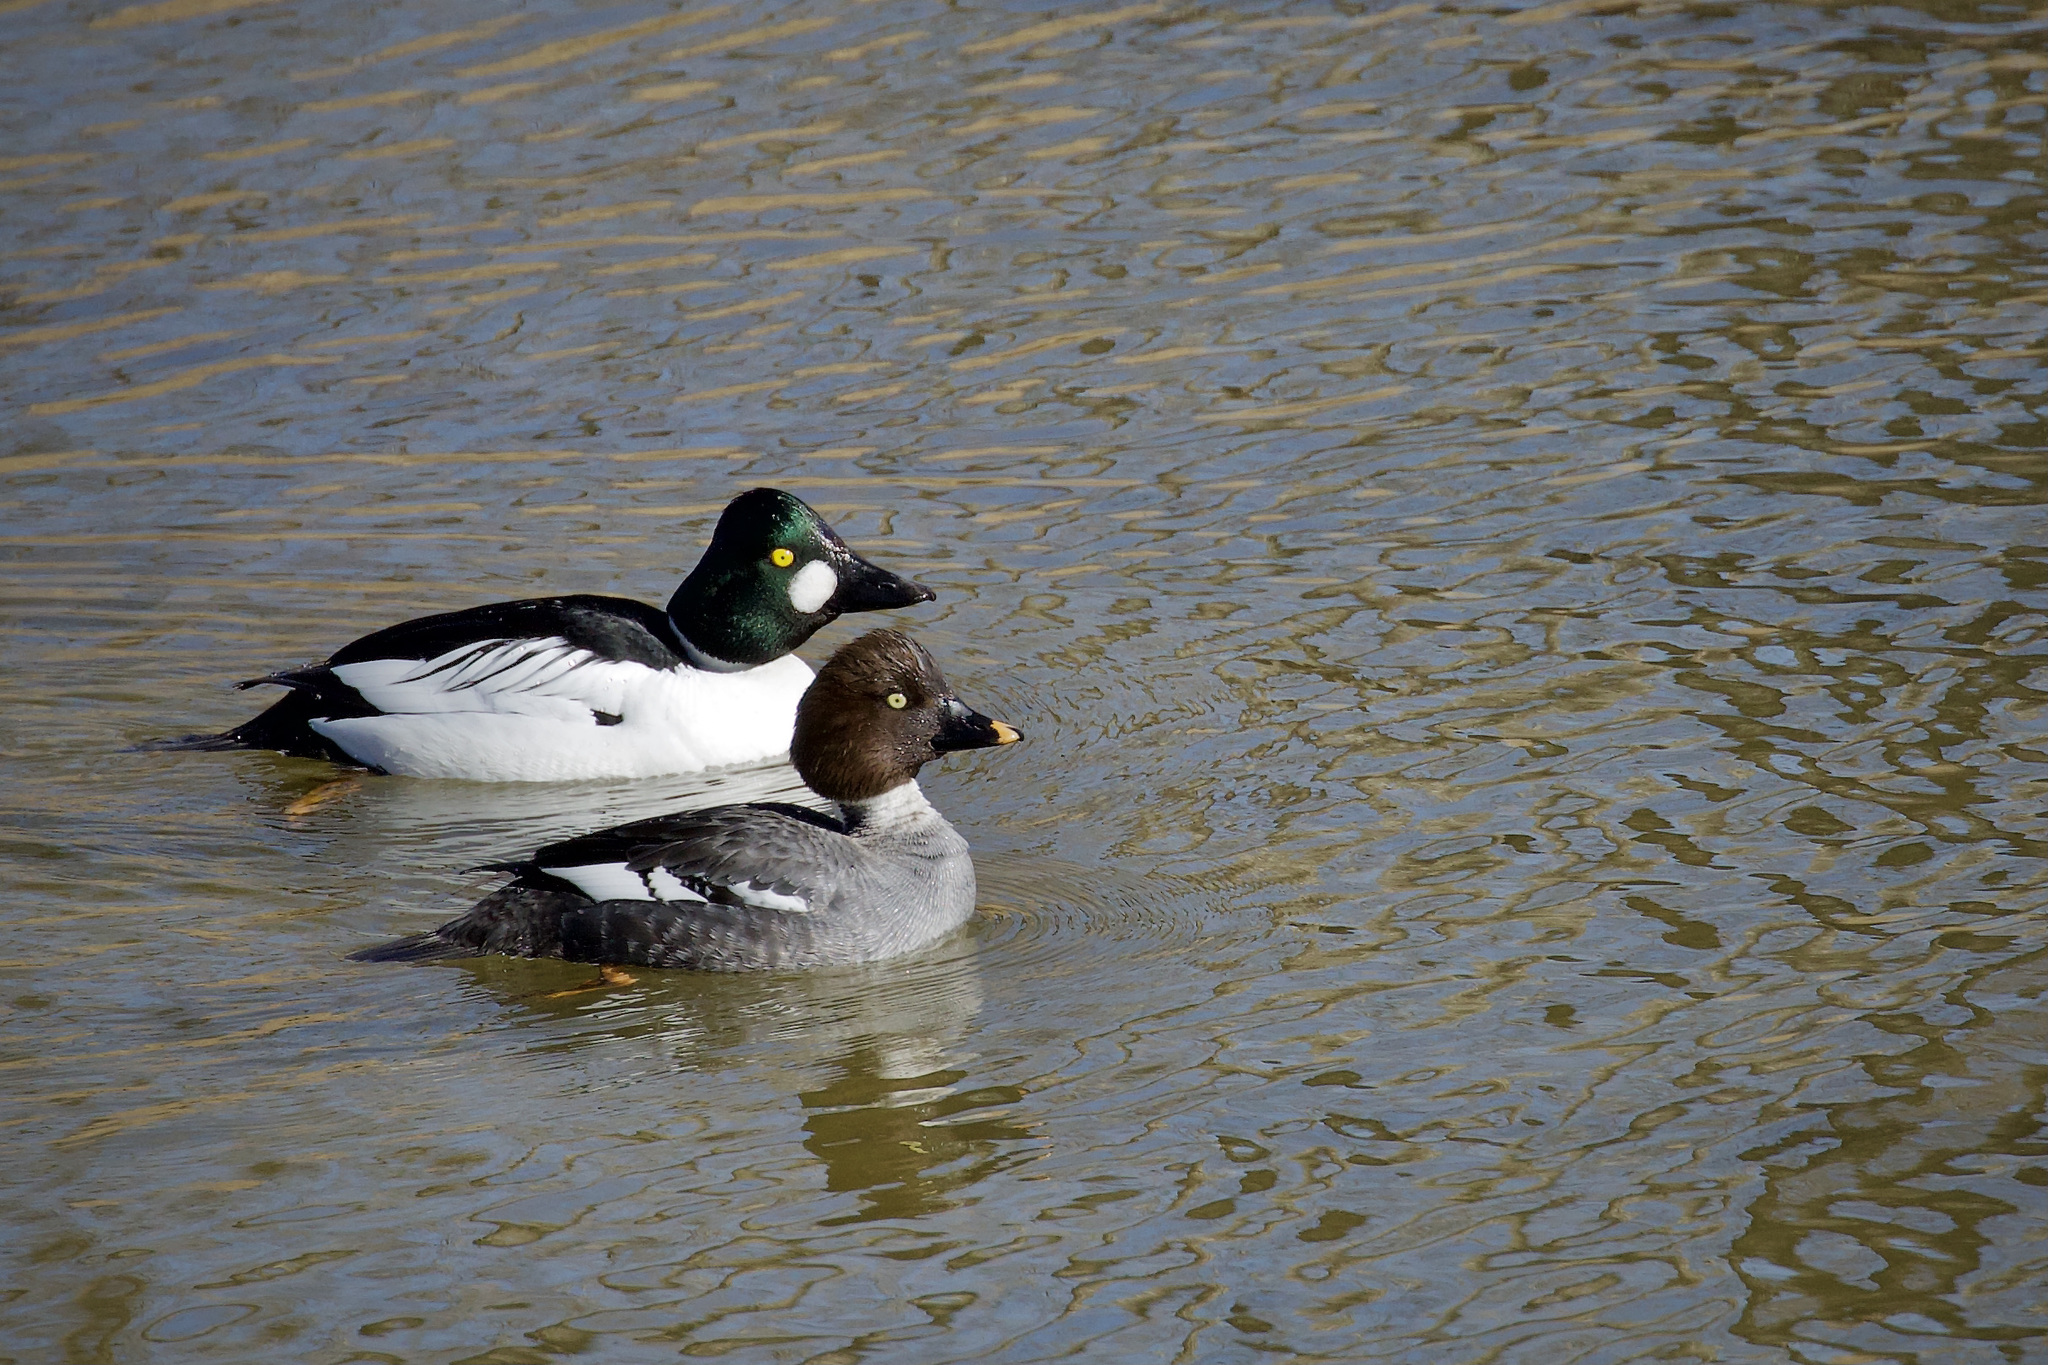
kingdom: Animalia
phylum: Chordata
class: Aves
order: Anseriformes
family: Anatidae
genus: Bucephala
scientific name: Bucephala clangula
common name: Common goldeneye
